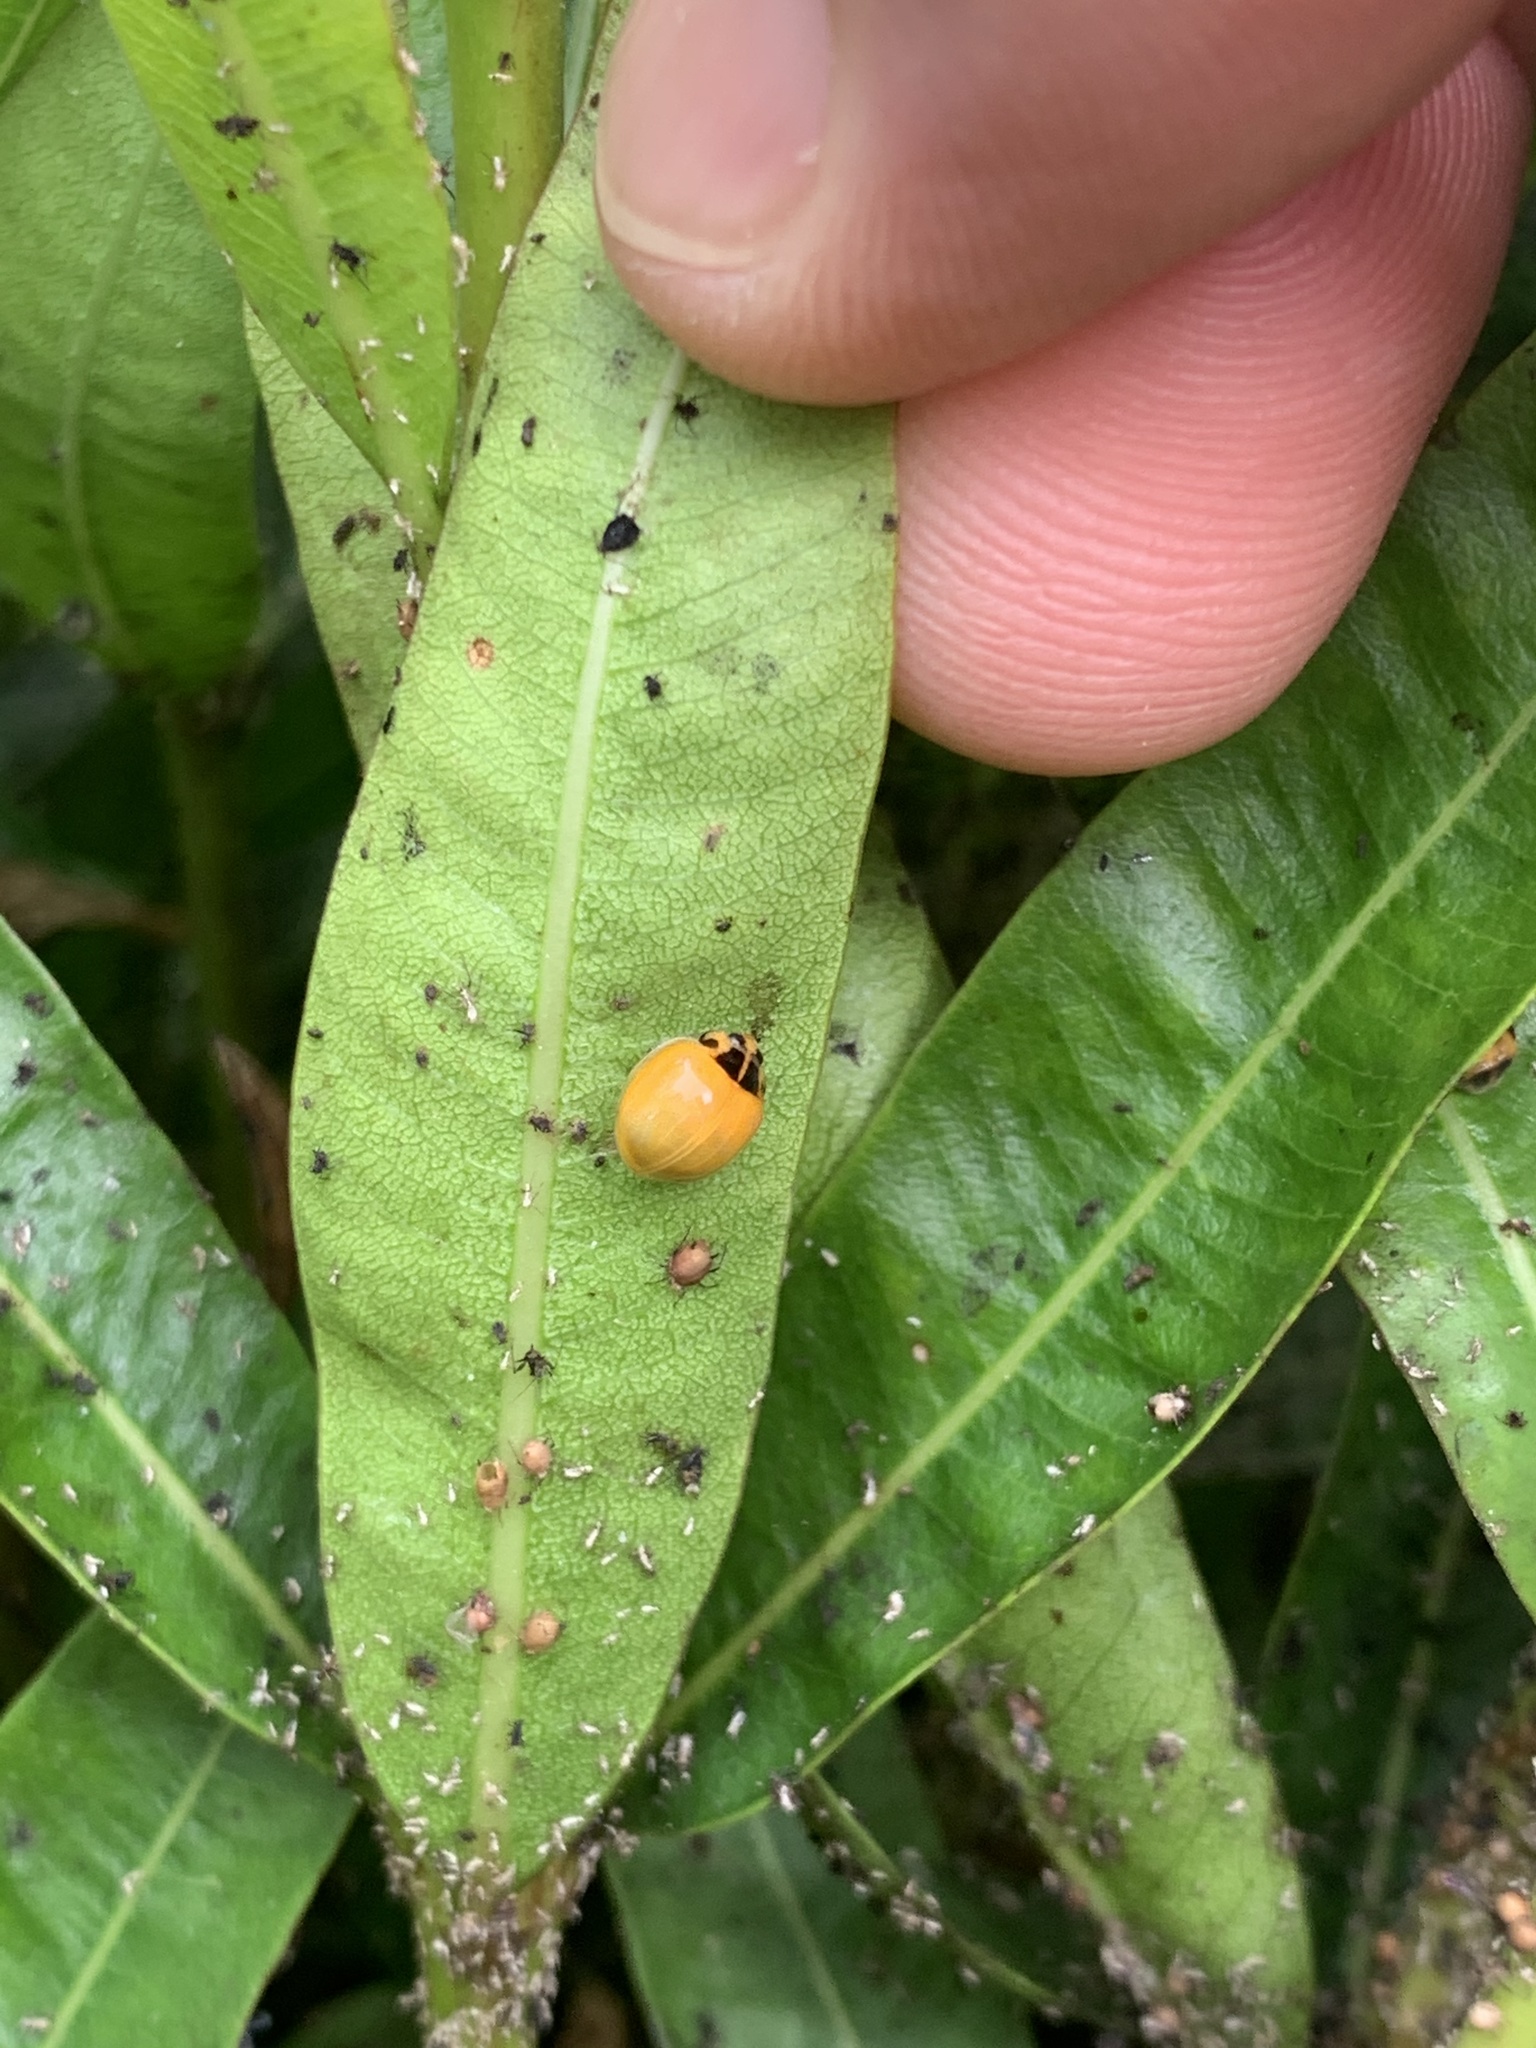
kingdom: Animalia
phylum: Arthropoda
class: Insecta
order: Coleoptera
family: Coccinellidae
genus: Coelophora
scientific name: Coelophora inaequalis
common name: Common australian lady beetle
